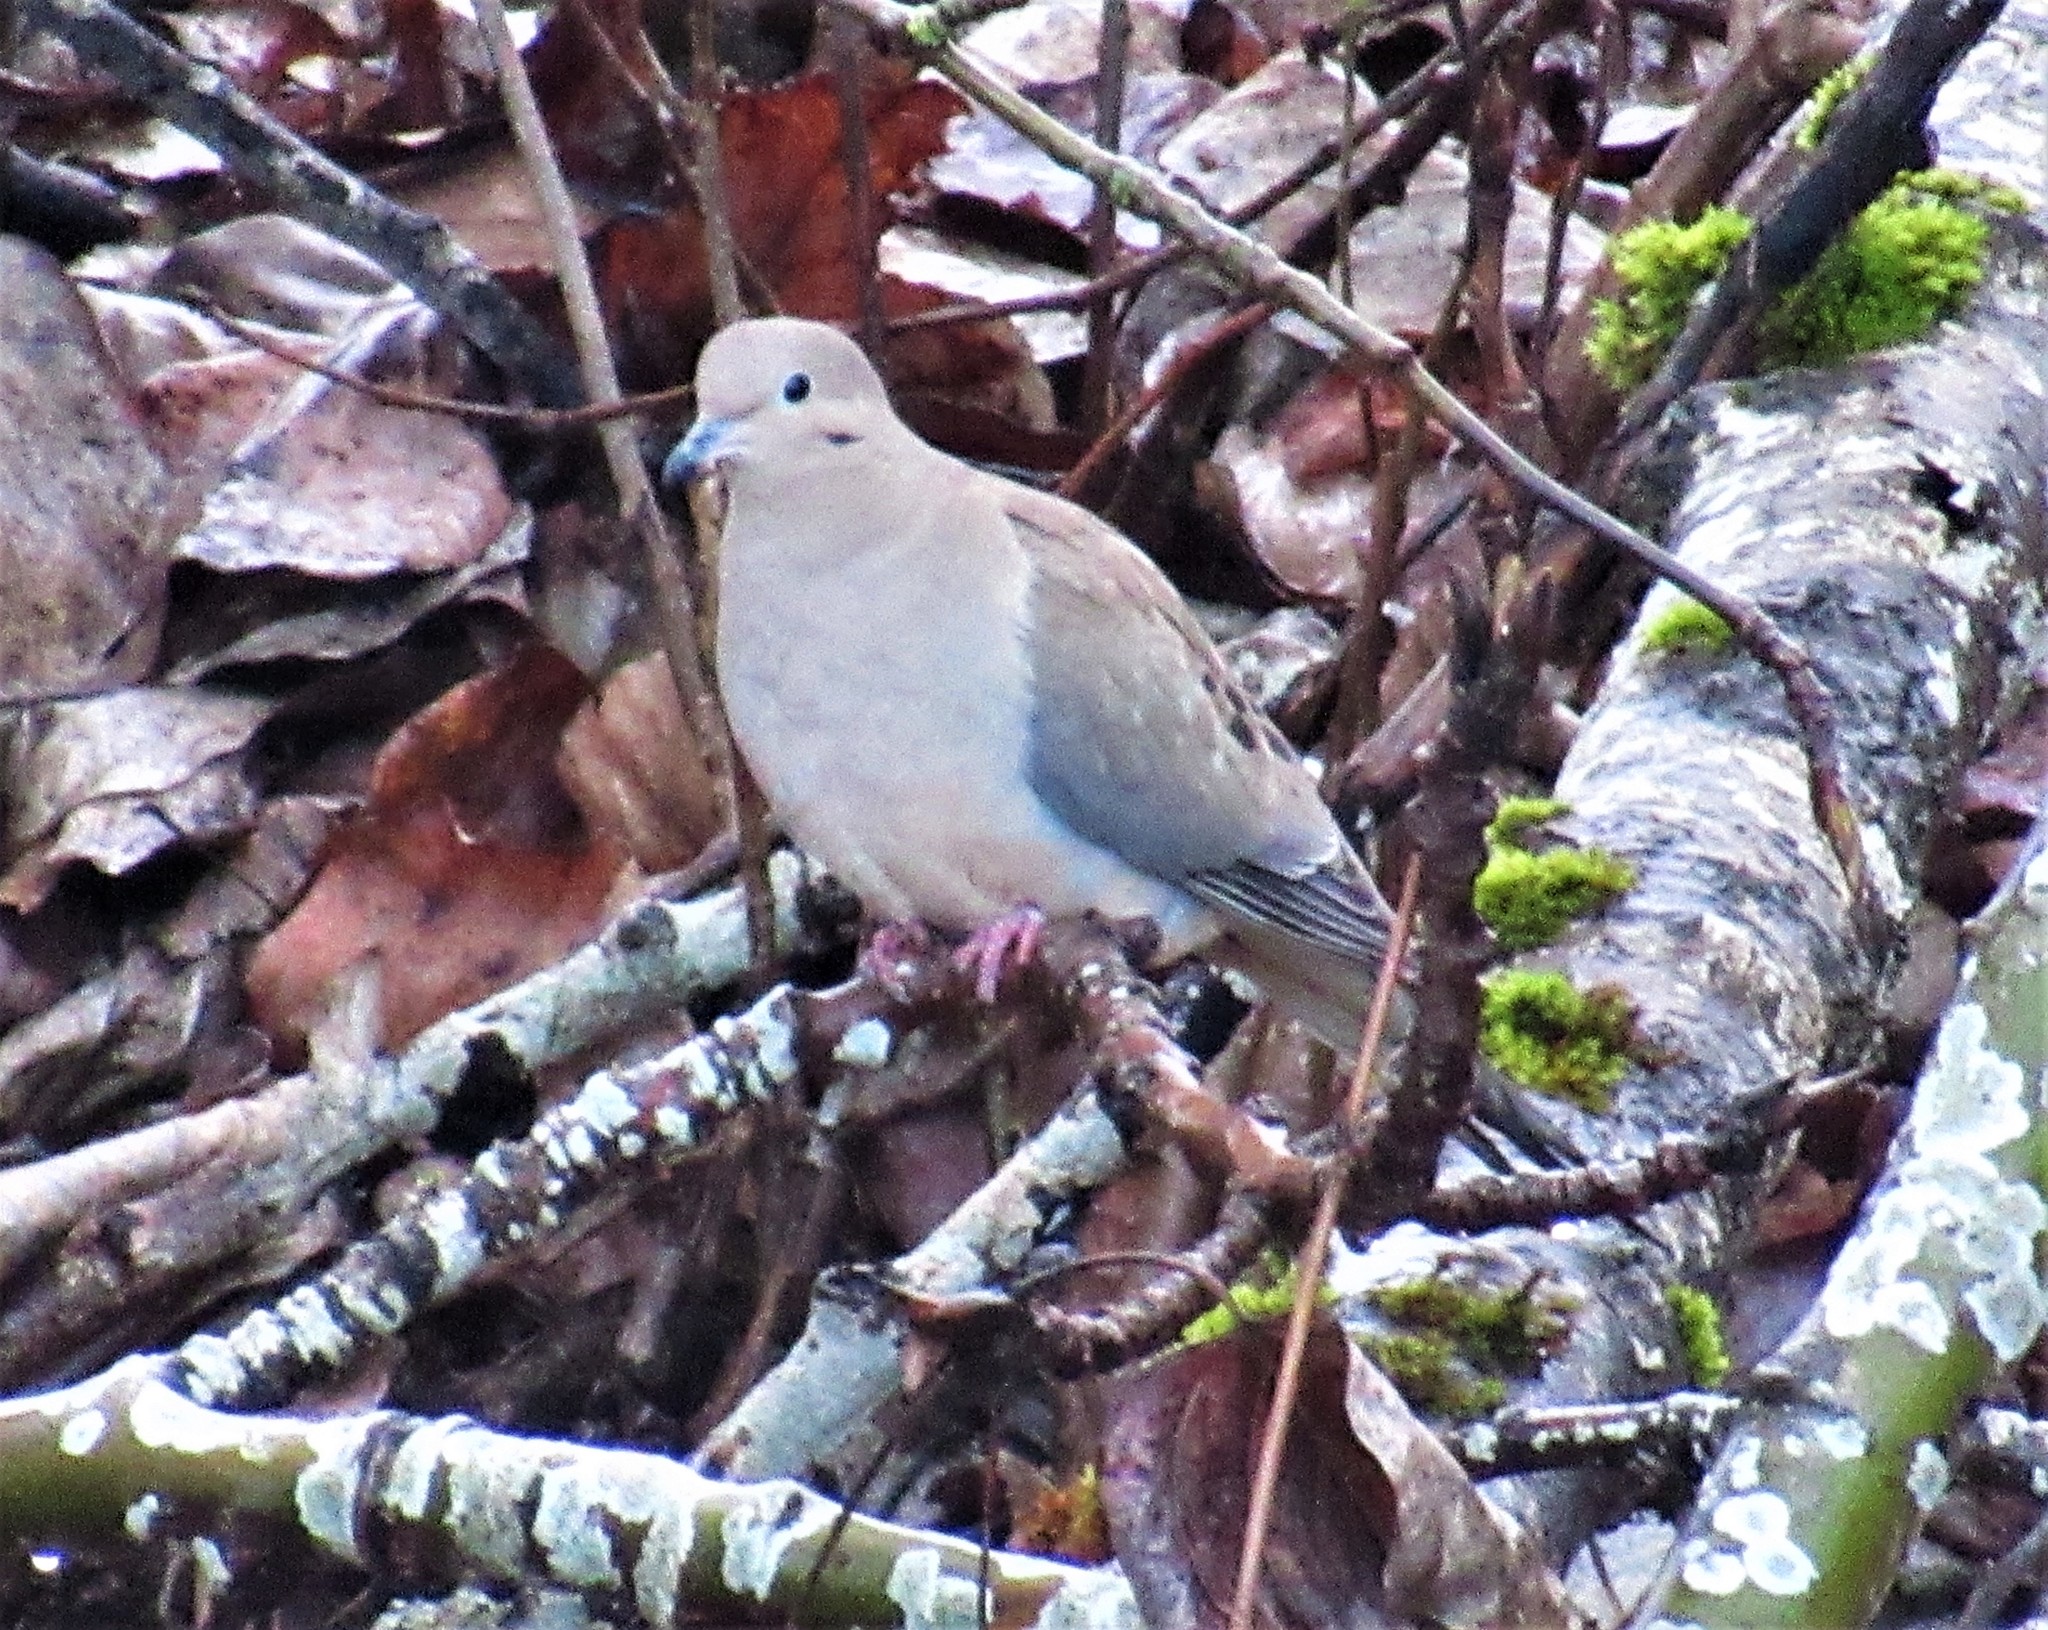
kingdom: Animalia
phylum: Chordata
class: Aves
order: Columbiformes
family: Columbidae
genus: Zenaida
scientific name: Zenaida macroura
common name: Mourning dove
